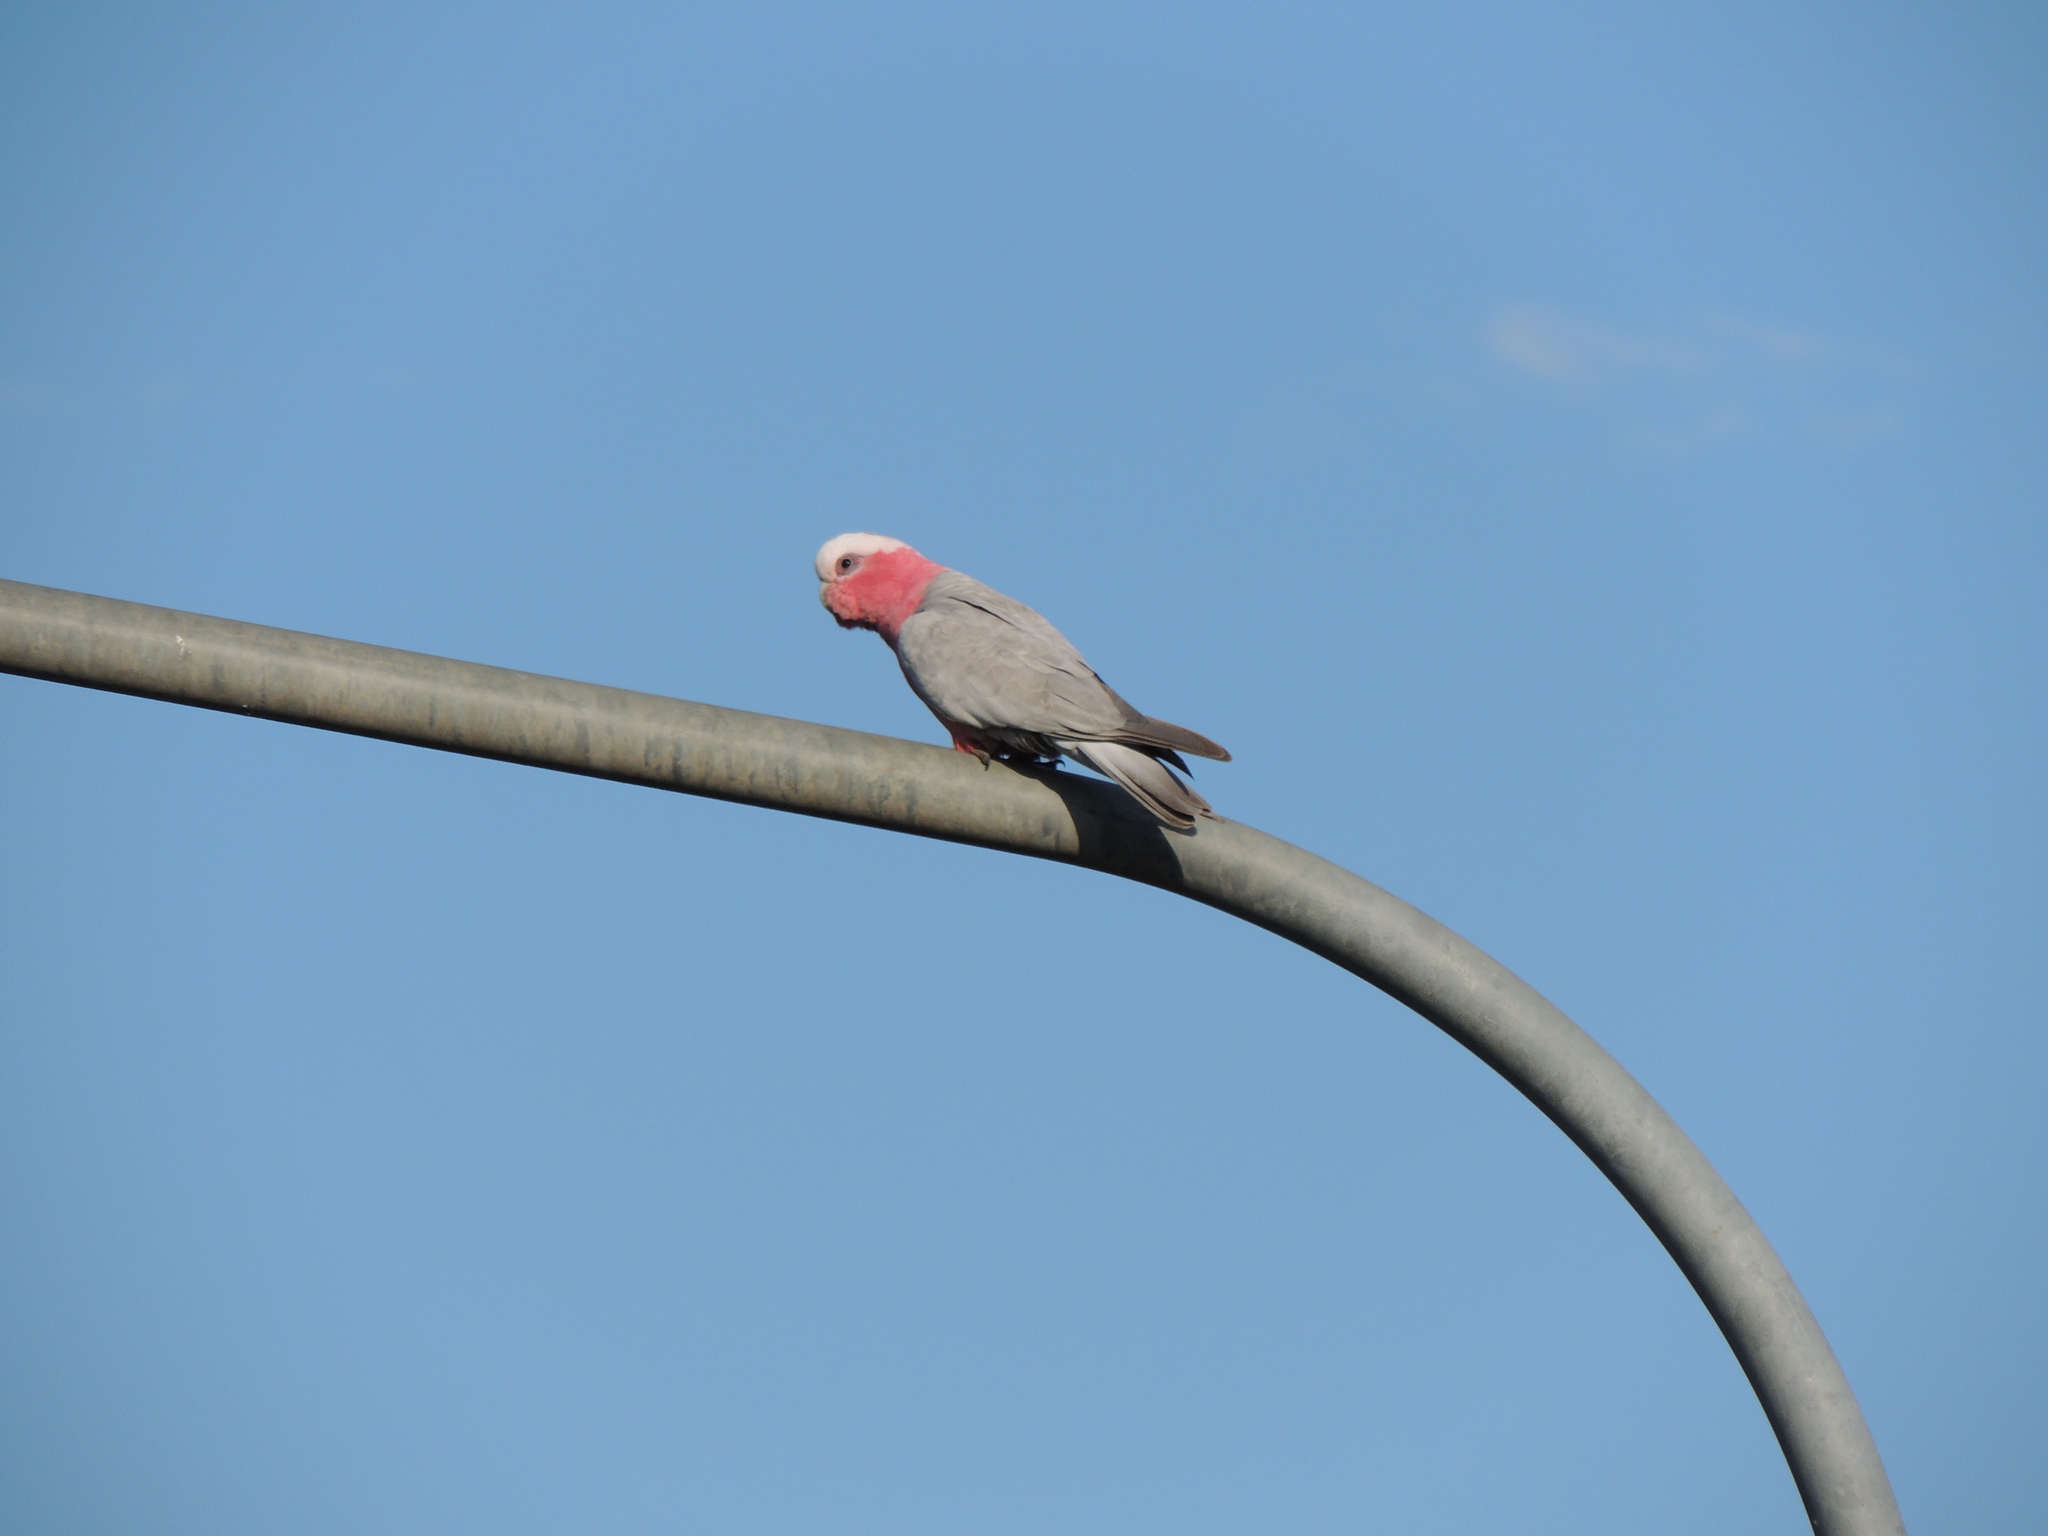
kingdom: Animalia
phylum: Chordata
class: Aves
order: Psittaciformes
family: Psittacidae
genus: Eolophus
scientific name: Eolophus roseicapilla
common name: Galah
